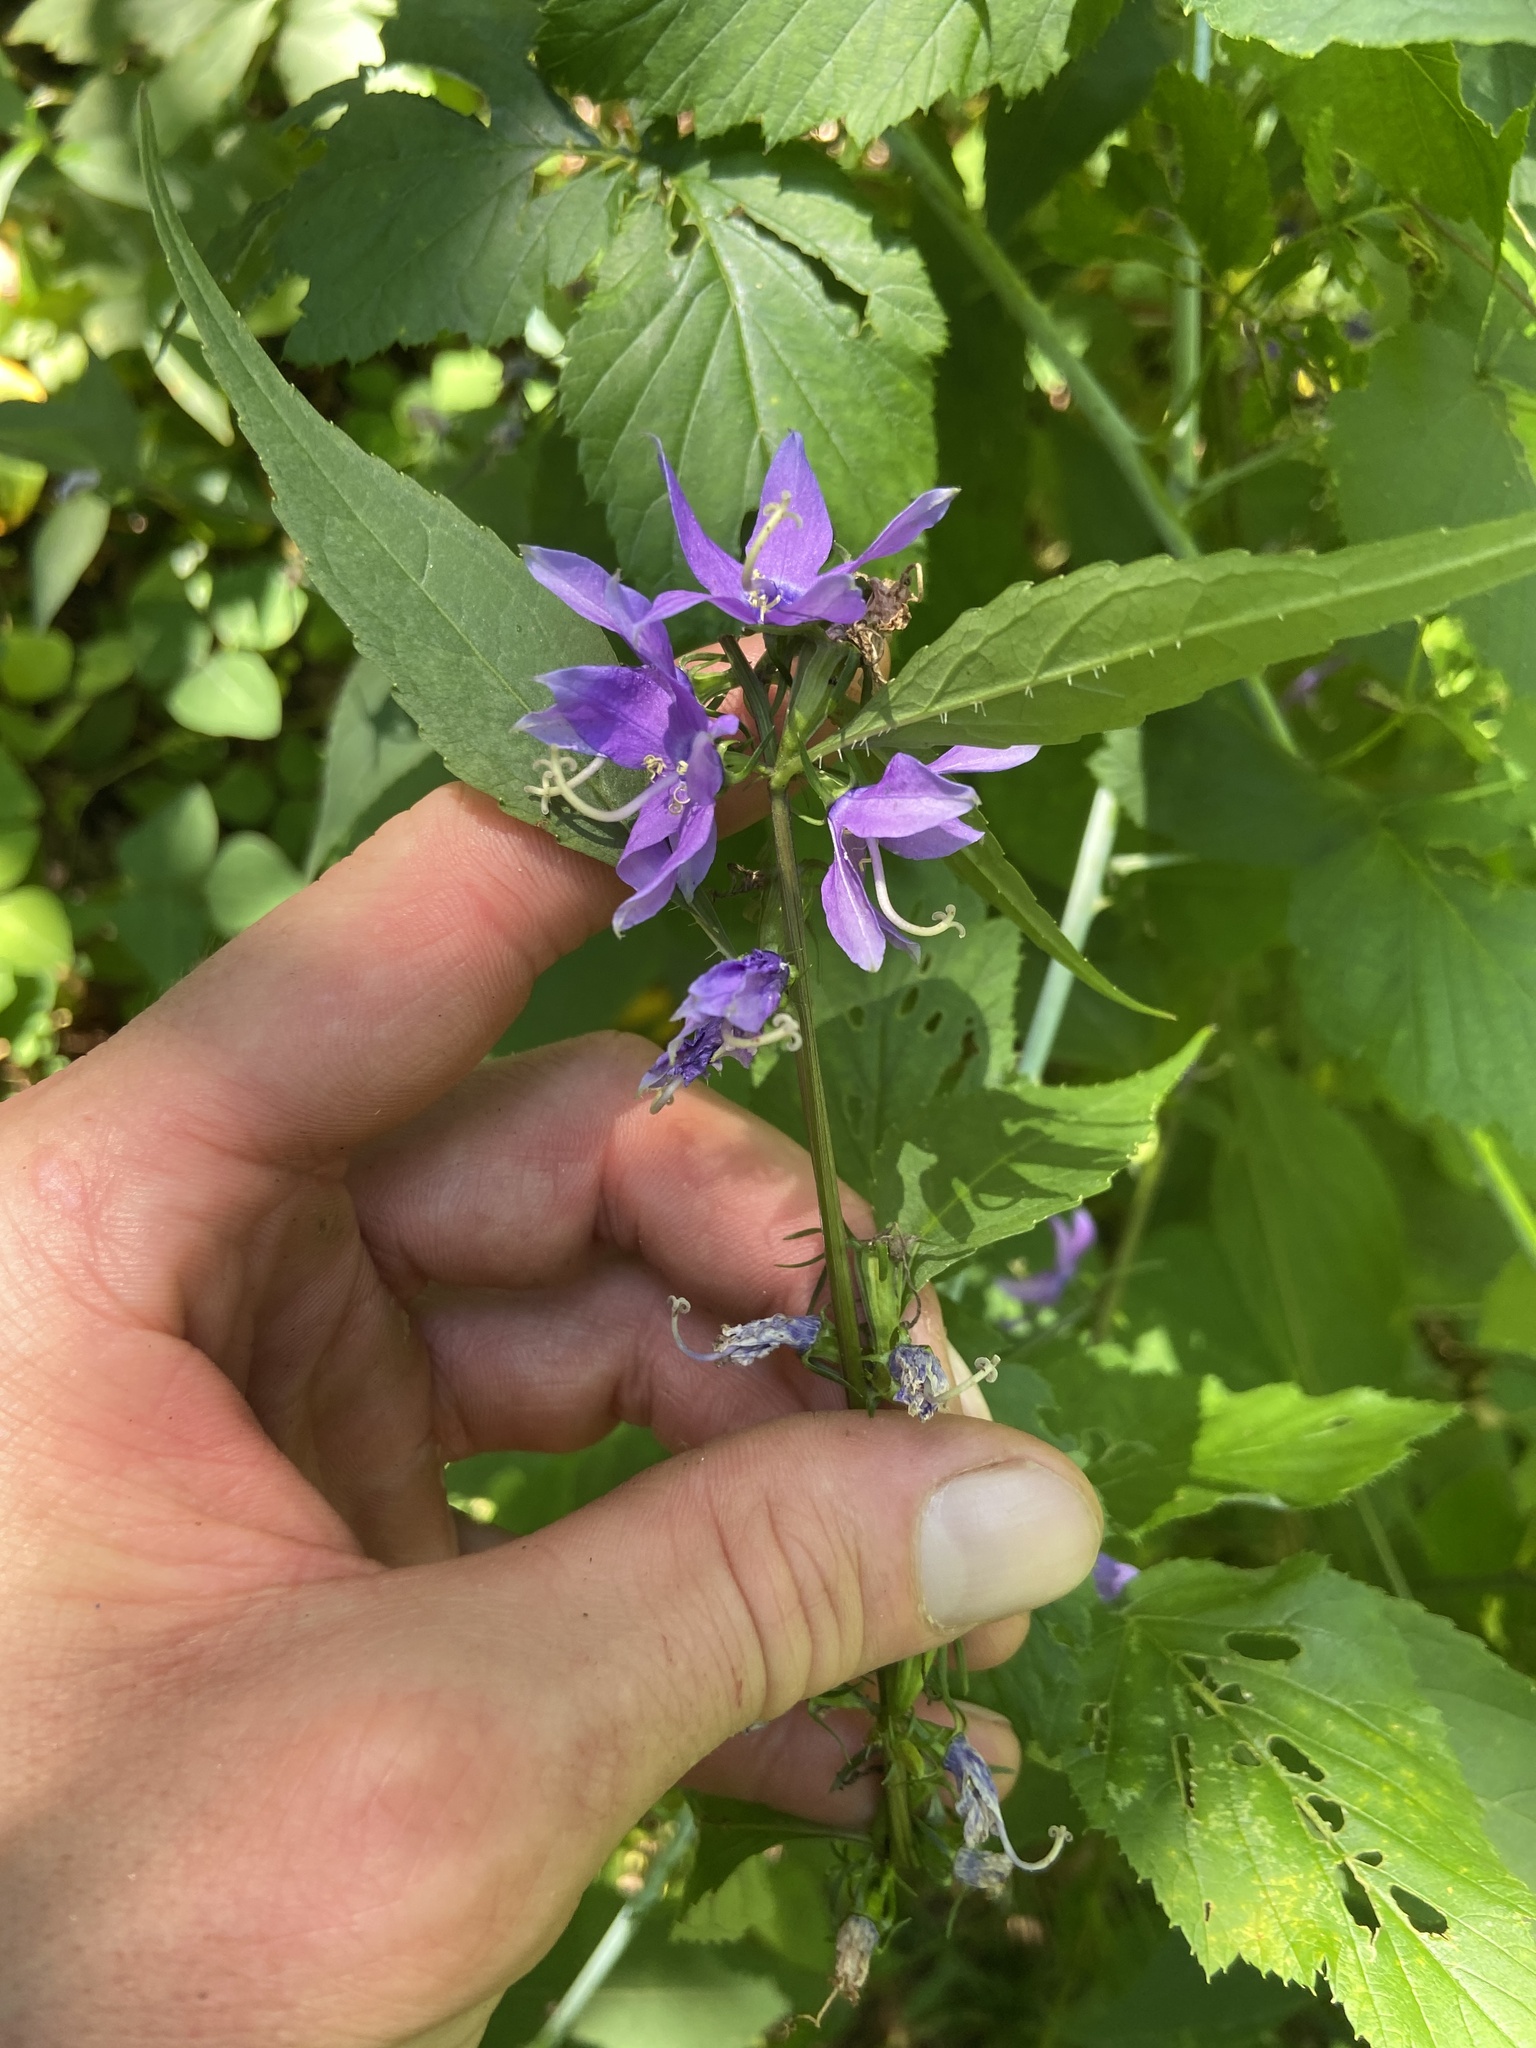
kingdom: Plantae
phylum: Tracheophyta
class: Magnoliopsida
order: Asterales
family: Campanulaceae
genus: Campanulastrum
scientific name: Campanulastrum americanum
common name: American bellflower
